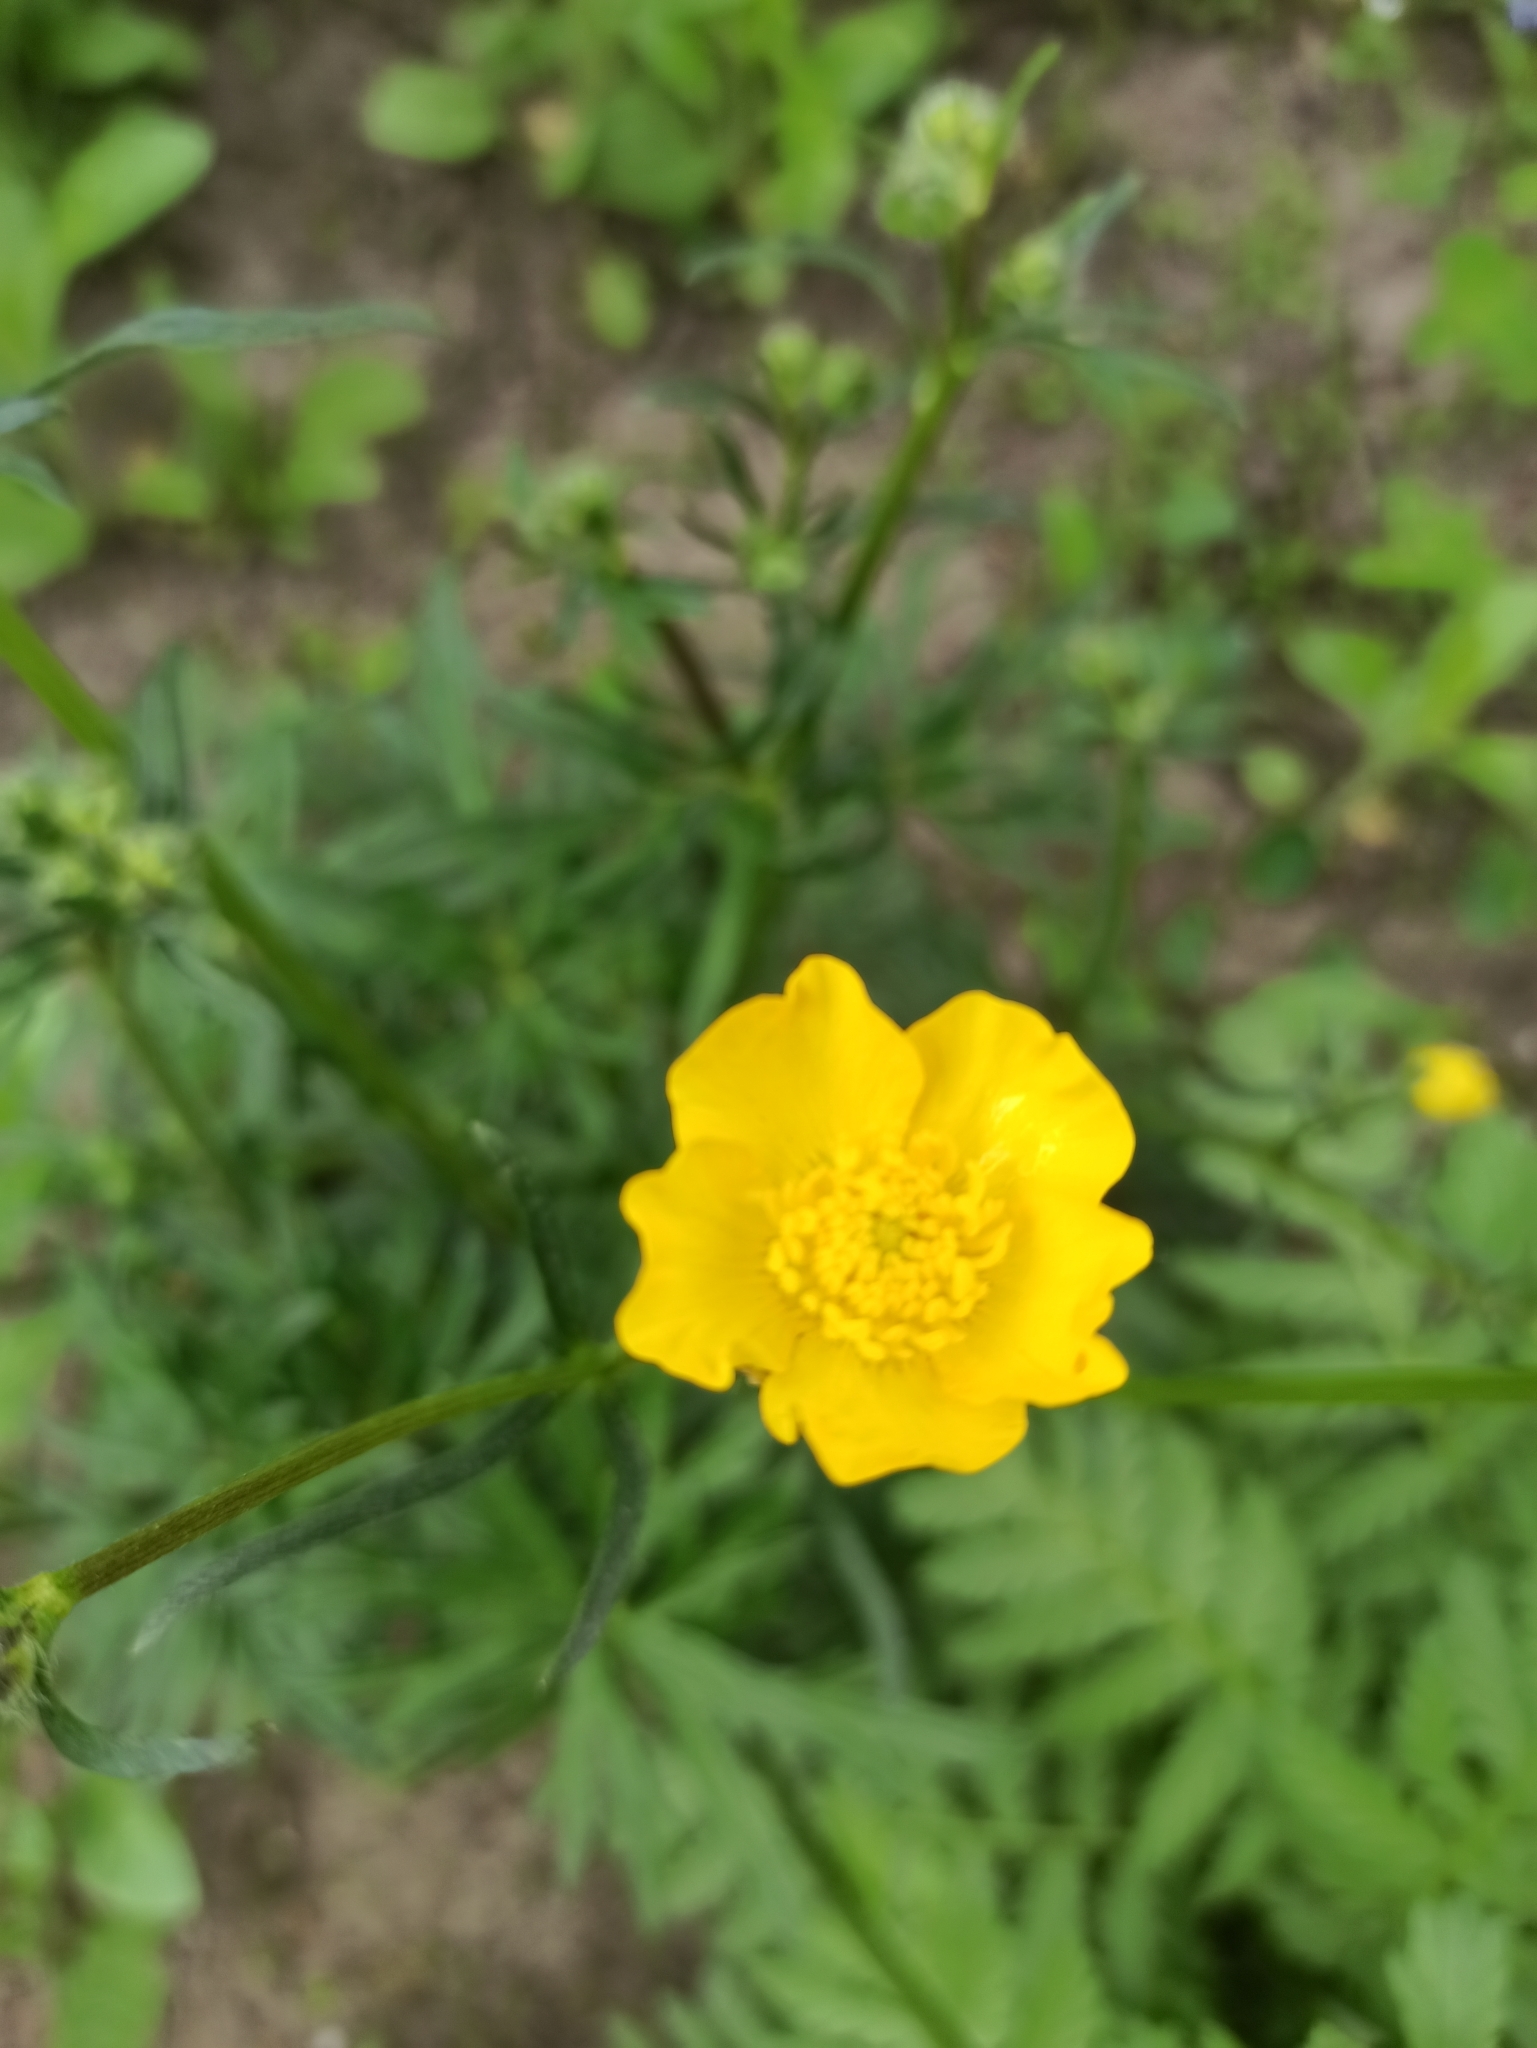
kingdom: Plantae
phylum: Tracheophyta
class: Magnoliopsida
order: Ranunculales
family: Ranunculaceae
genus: Ranunculus
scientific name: Ranunculus polyanthemos
